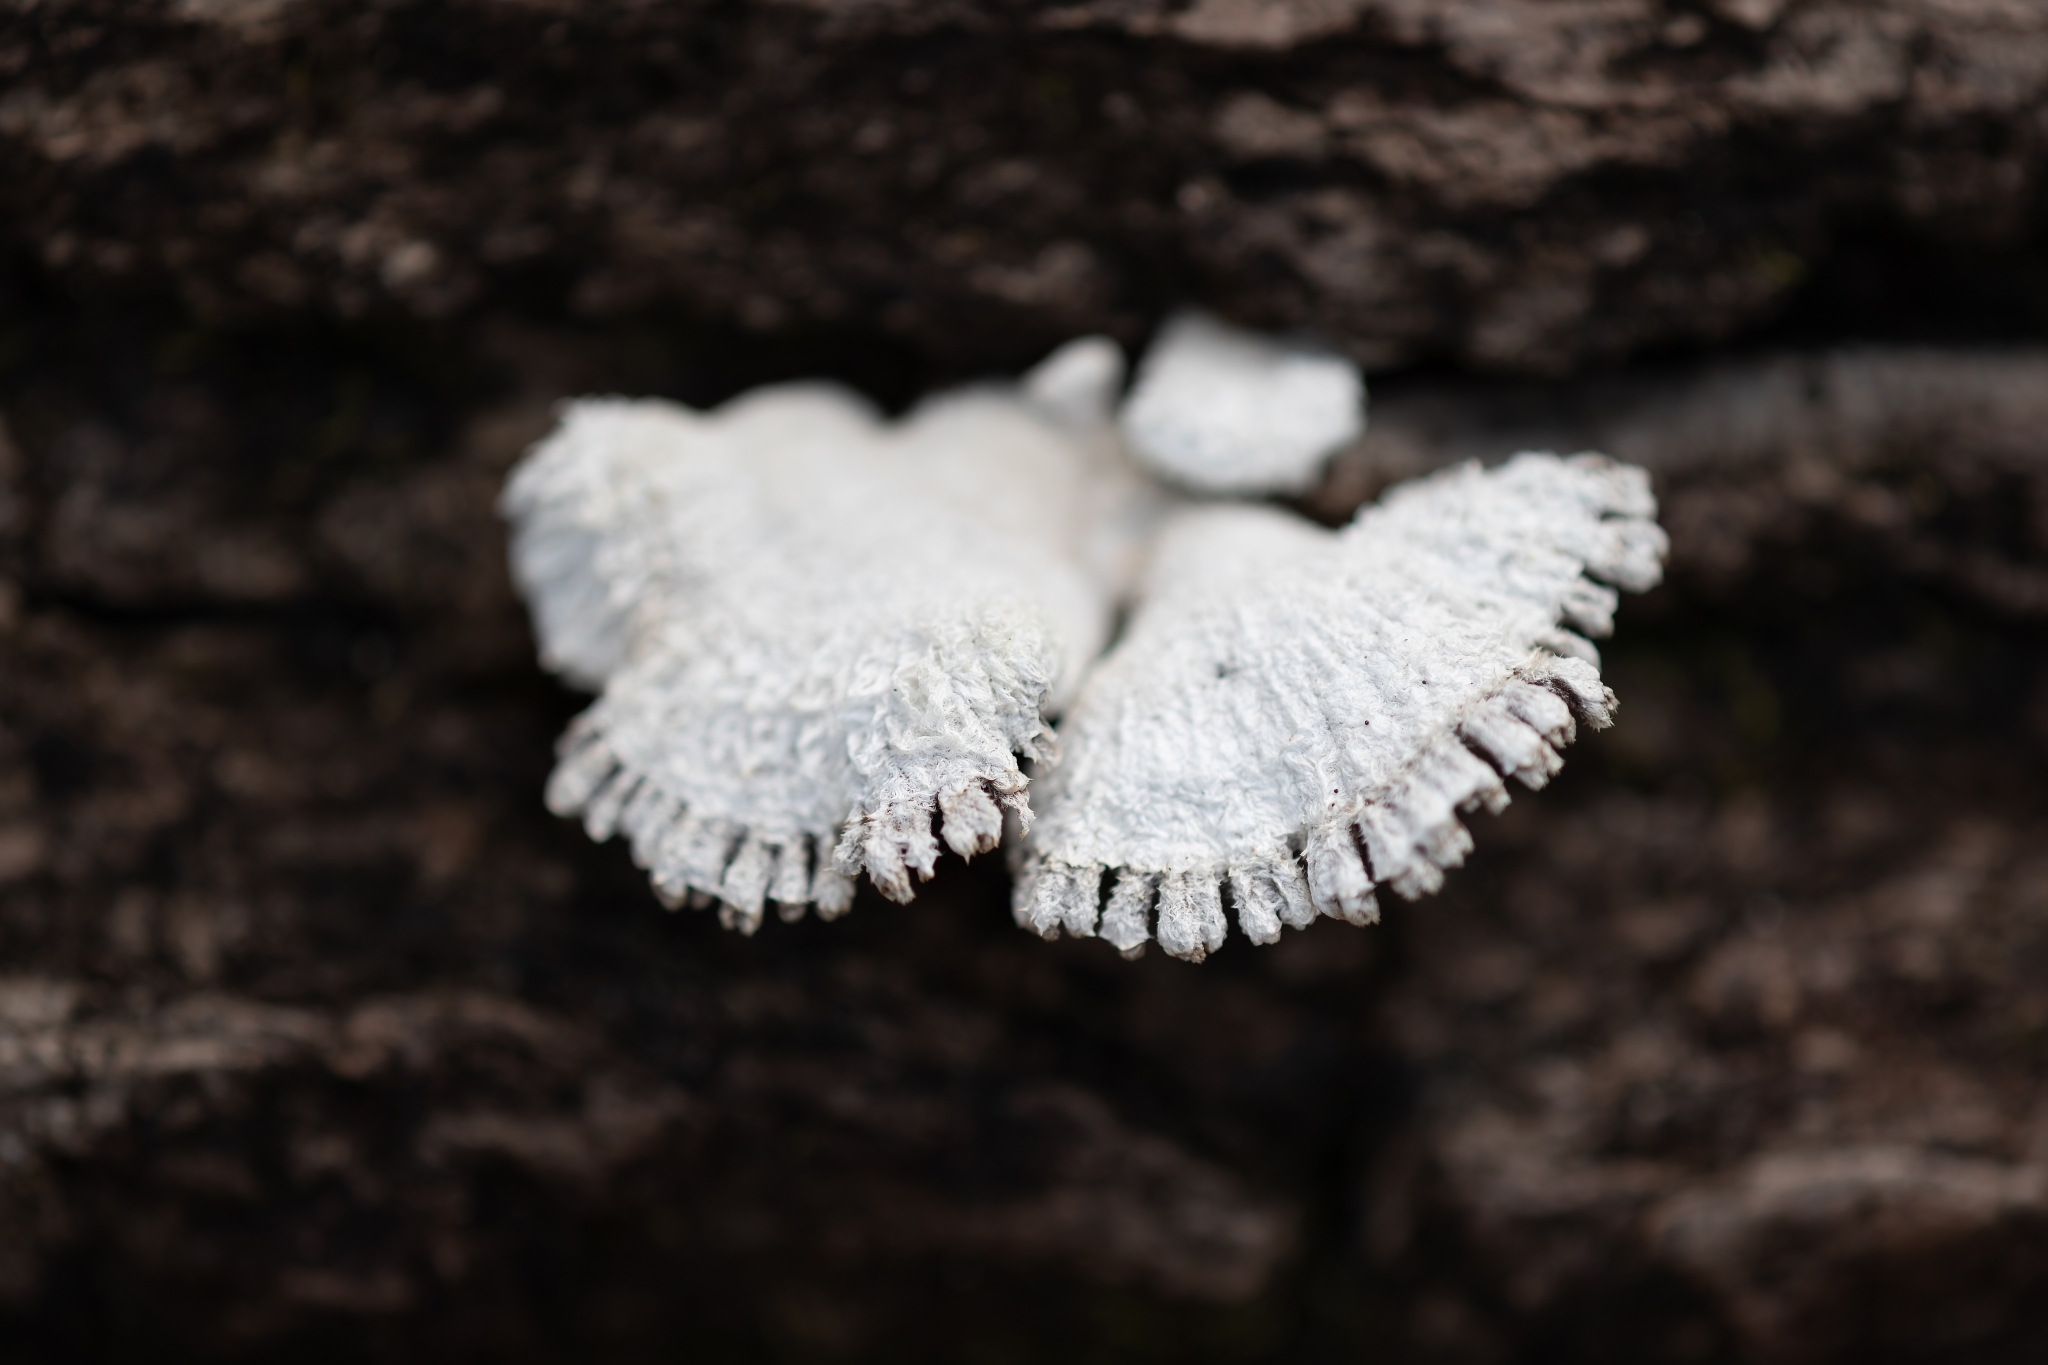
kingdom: Fungi
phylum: Basidiomycota
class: Agaricomycetes
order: Agaricales
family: Schizophyllaceae
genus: Schizophyllum
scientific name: Schizophyllum commune
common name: Common porecrust
